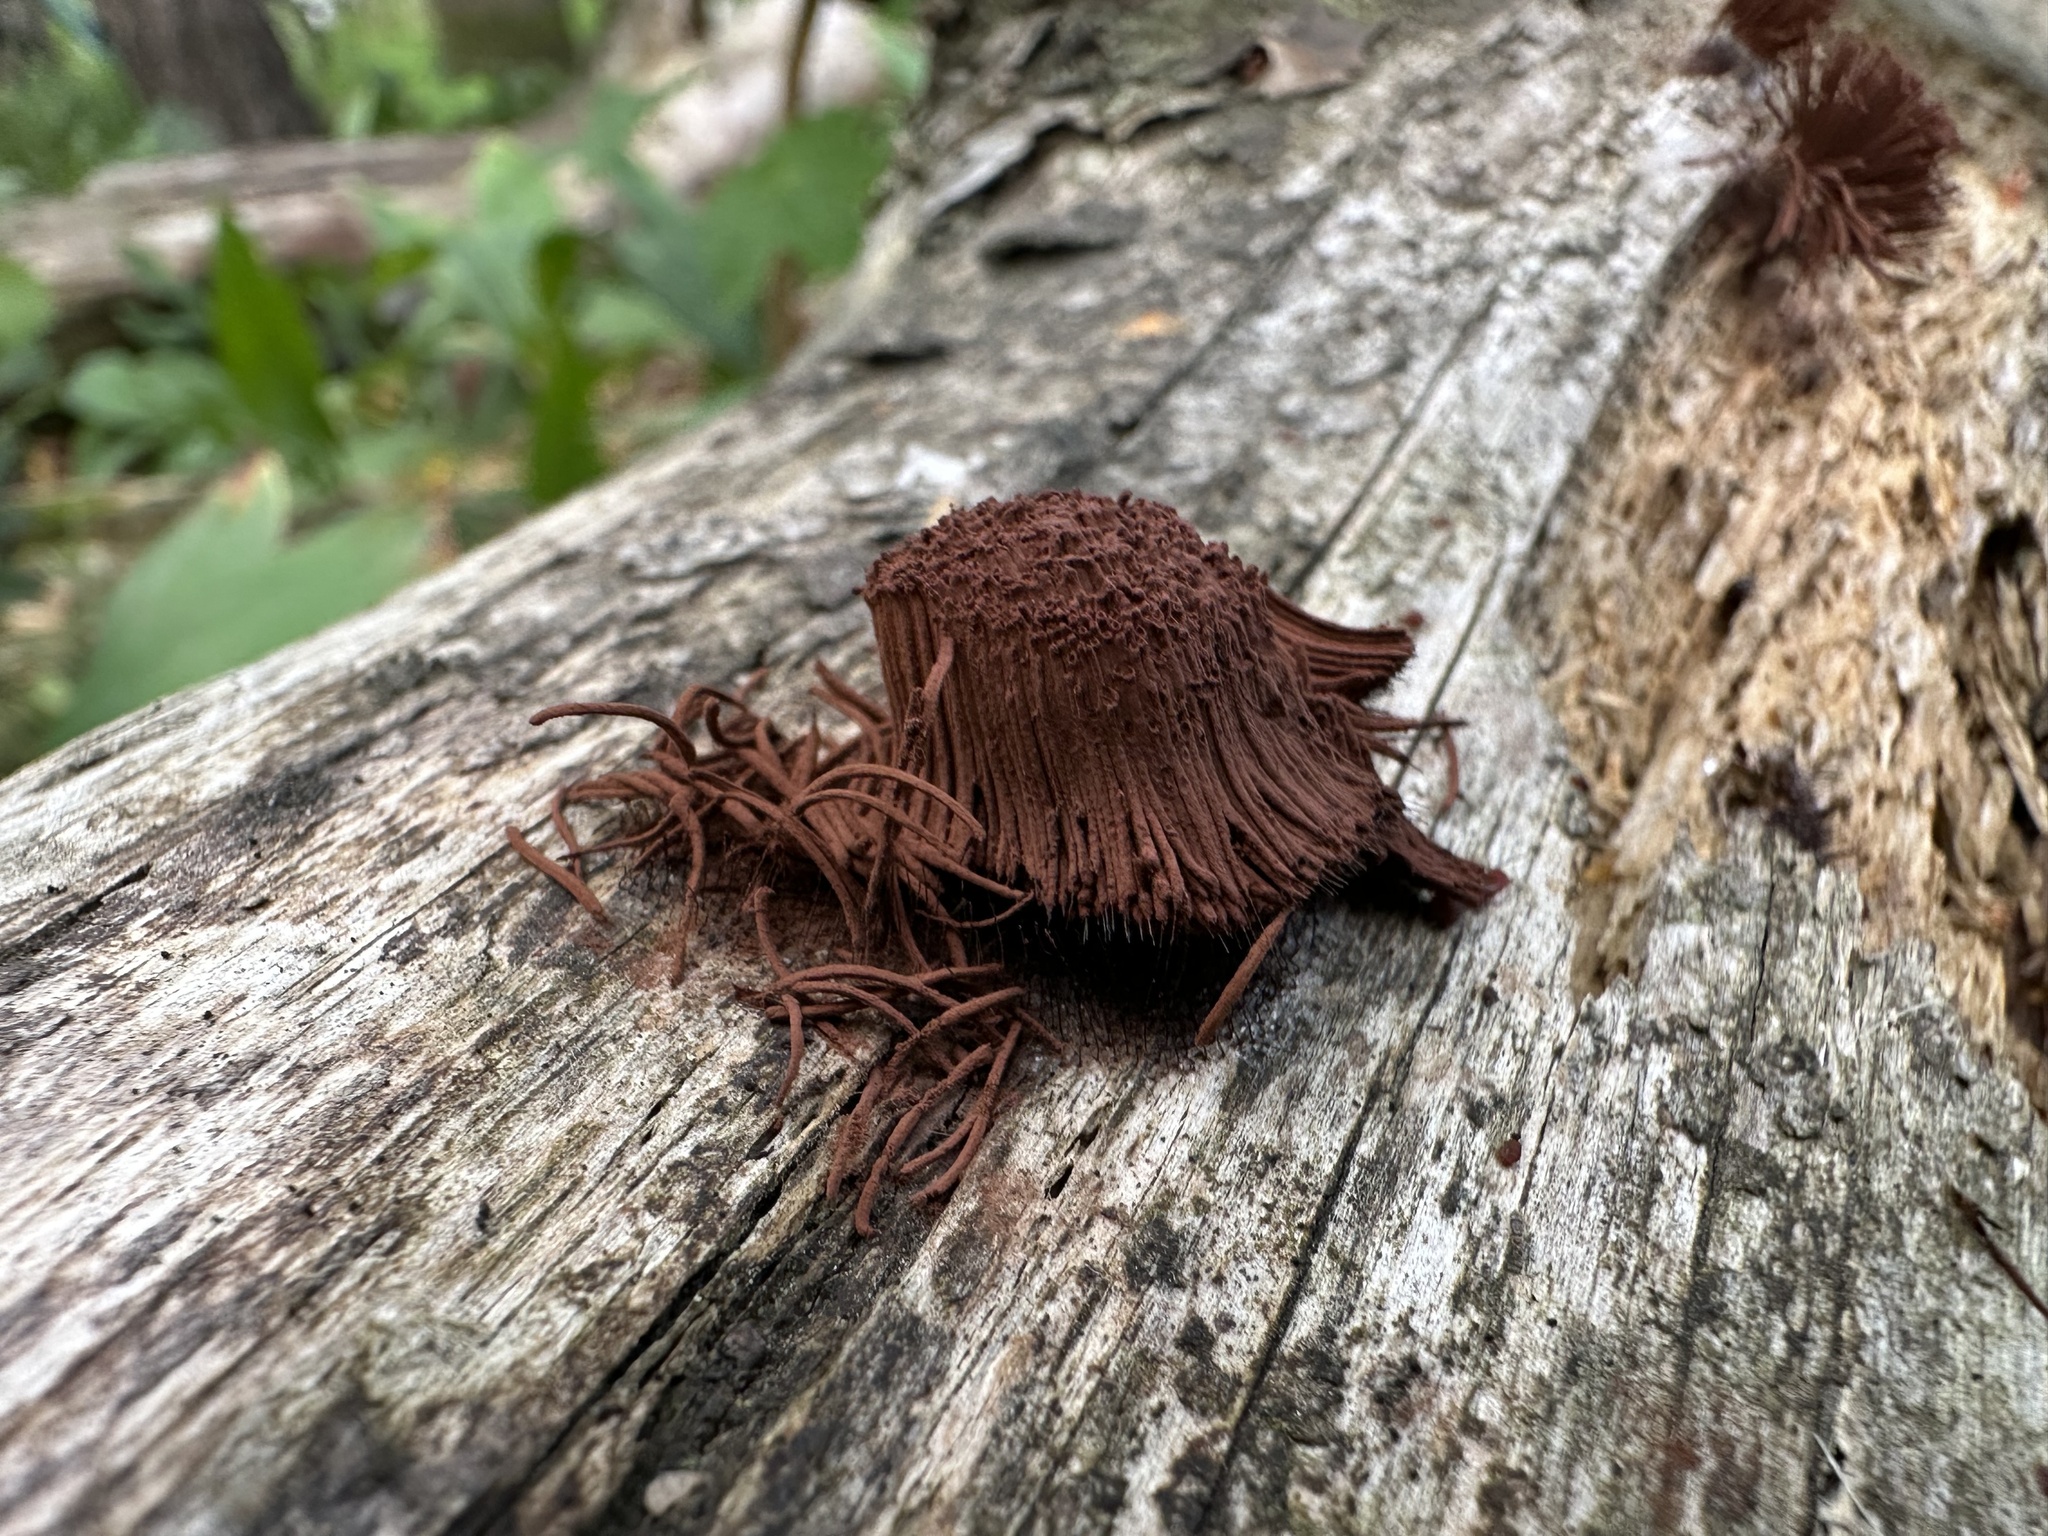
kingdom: Protozoa
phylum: Mycetozoa
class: Myxomycetes
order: Stemonitidales
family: Stemonitidaceae
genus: Stemonitis
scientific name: Stemonitis axifera
